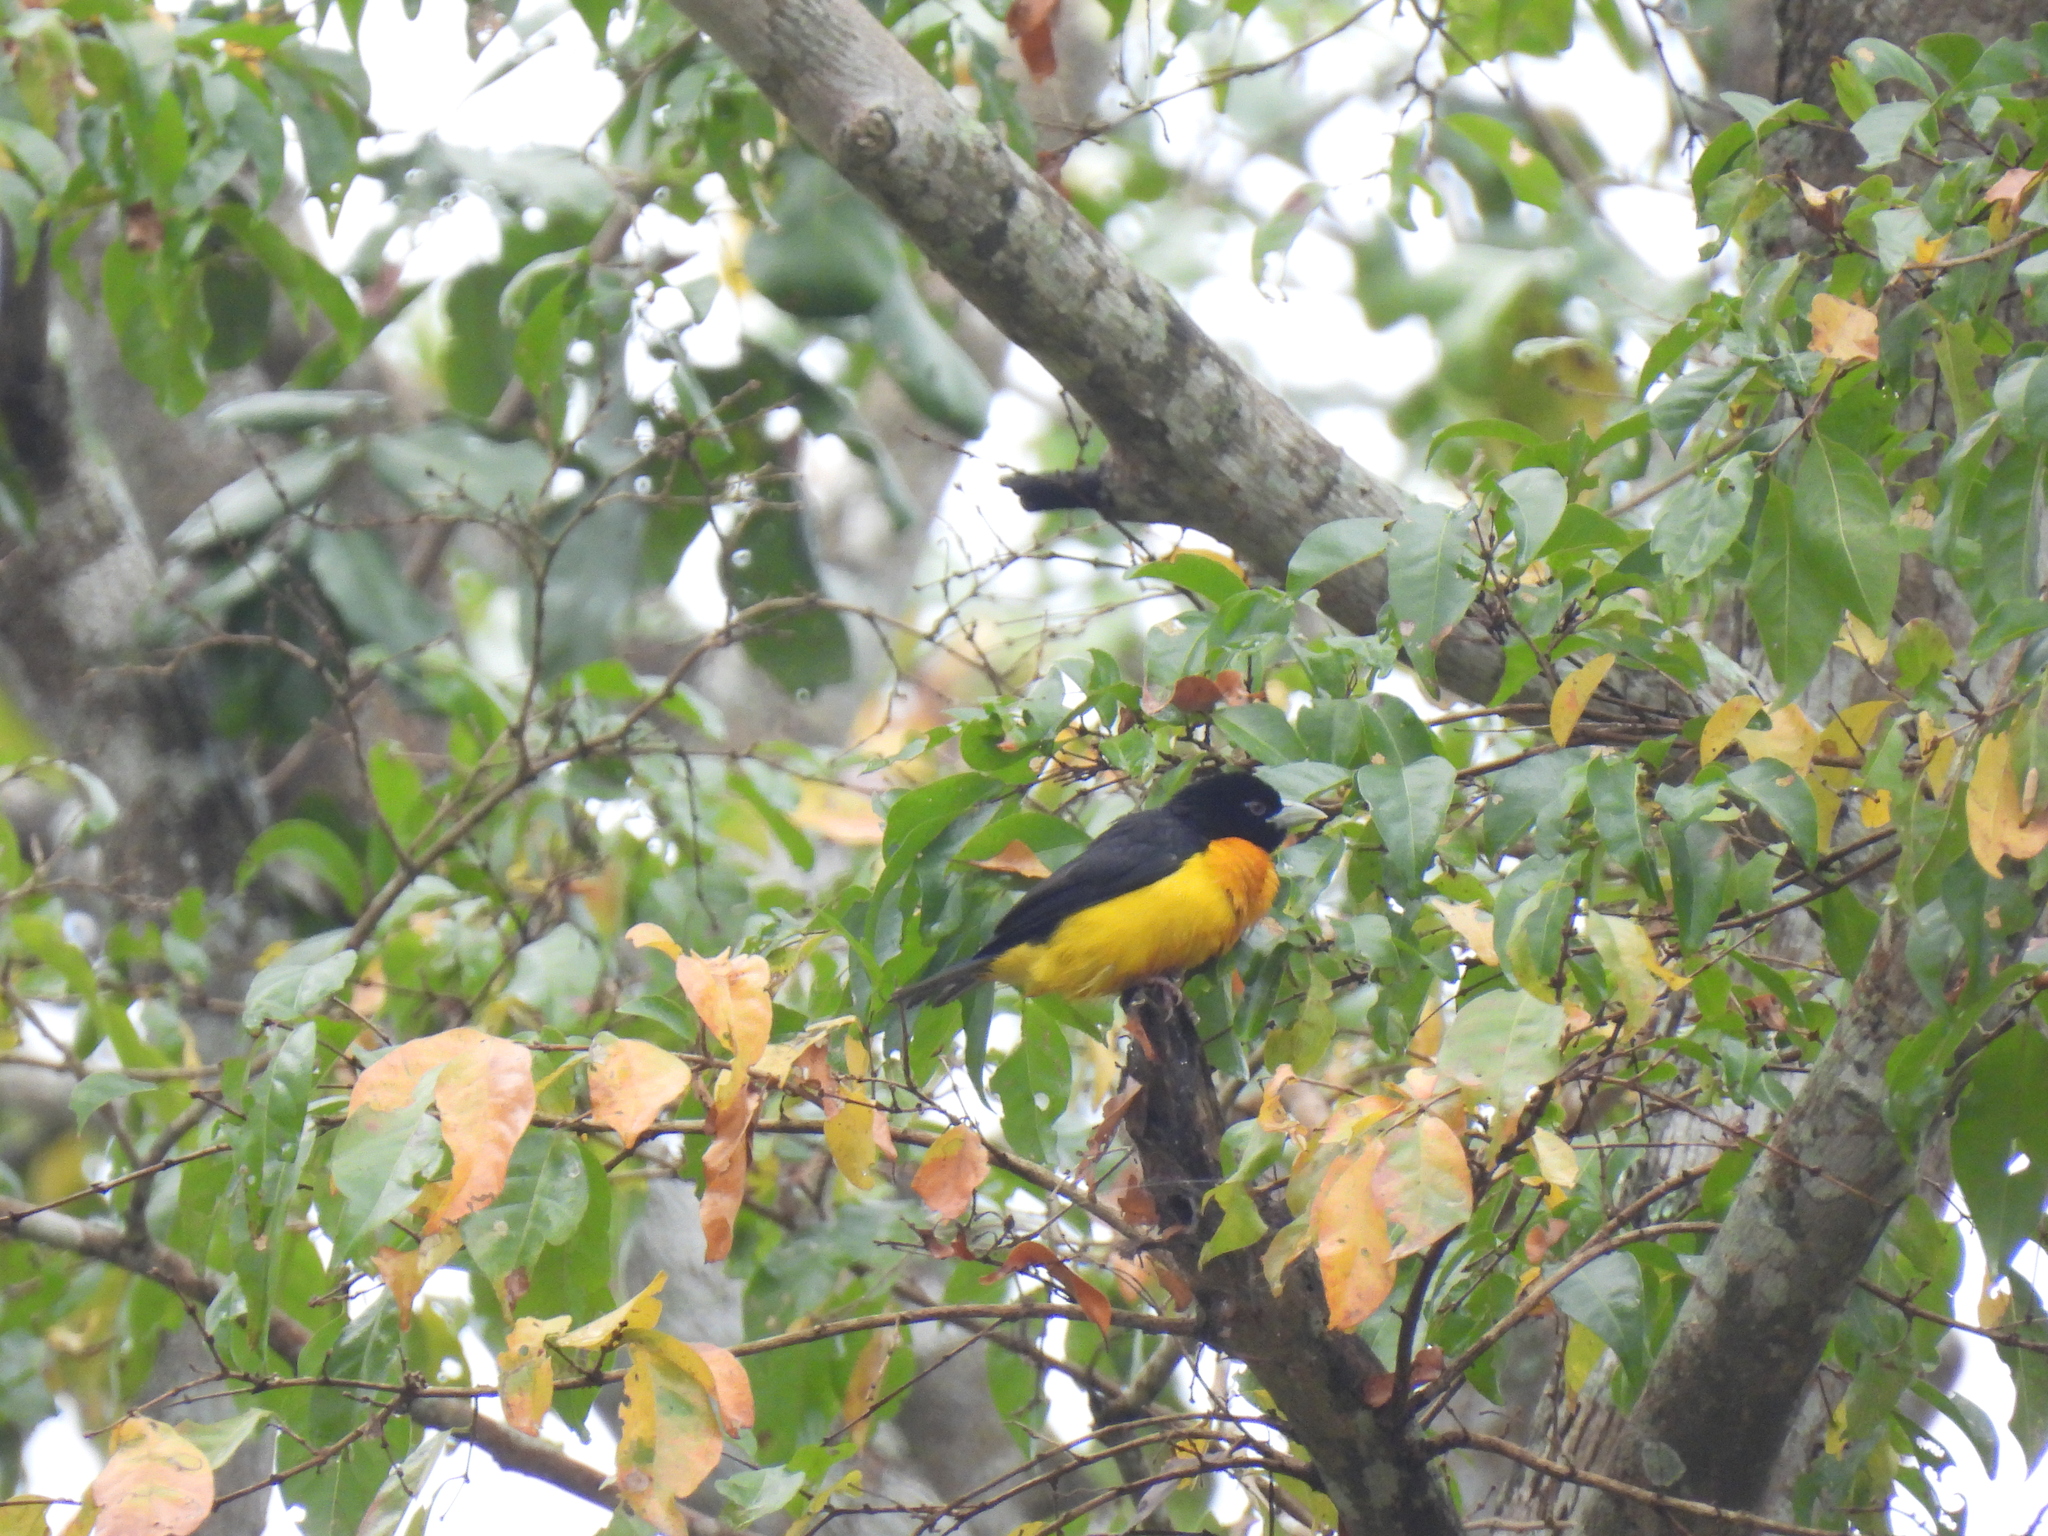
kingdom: Animalia
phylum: Chordata
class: Aves
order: Passeriformes
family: Ploceidae
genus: Ploceus
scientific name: Ploceus bicolor
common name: Dark-backed weaver
